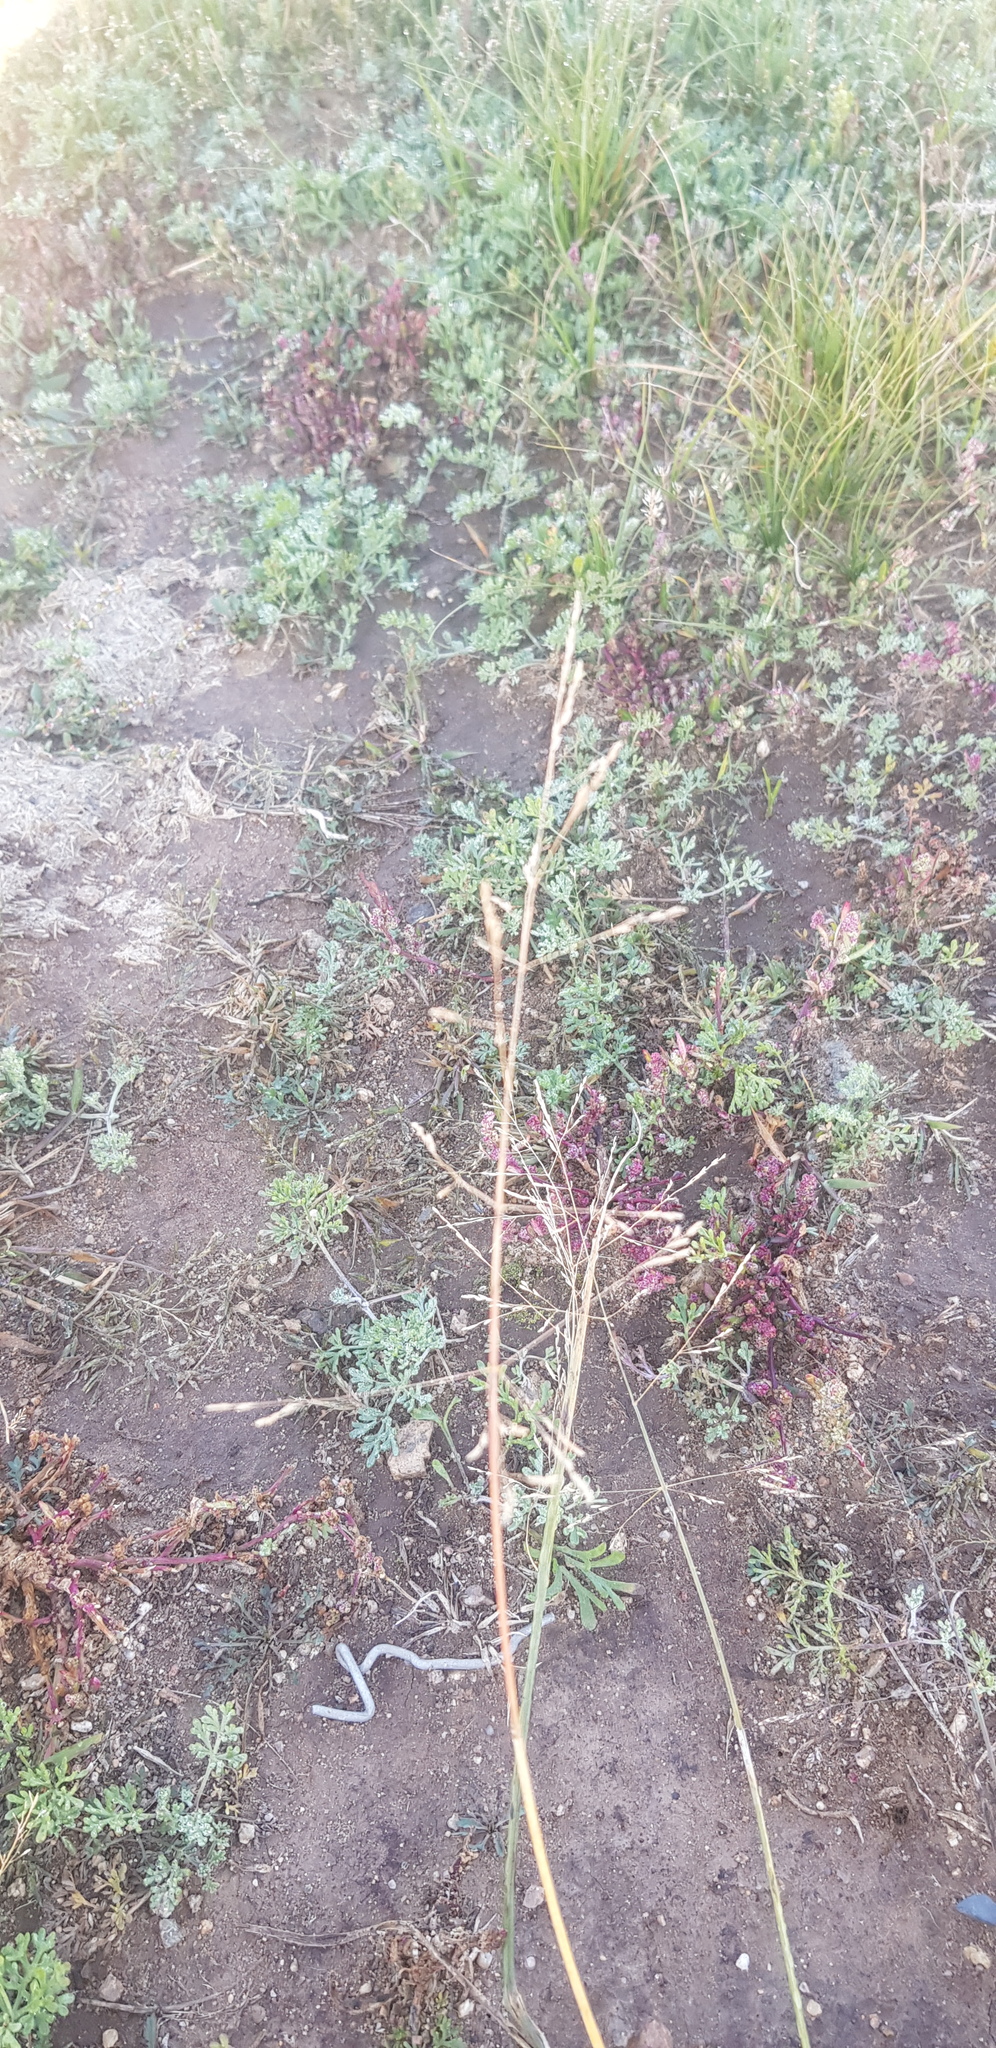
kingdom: Plantae
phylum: Tracheophyta
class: Liliopsida
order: Poales
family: Poaceae
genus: Neotrinia
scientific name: Neotrinia splendens
